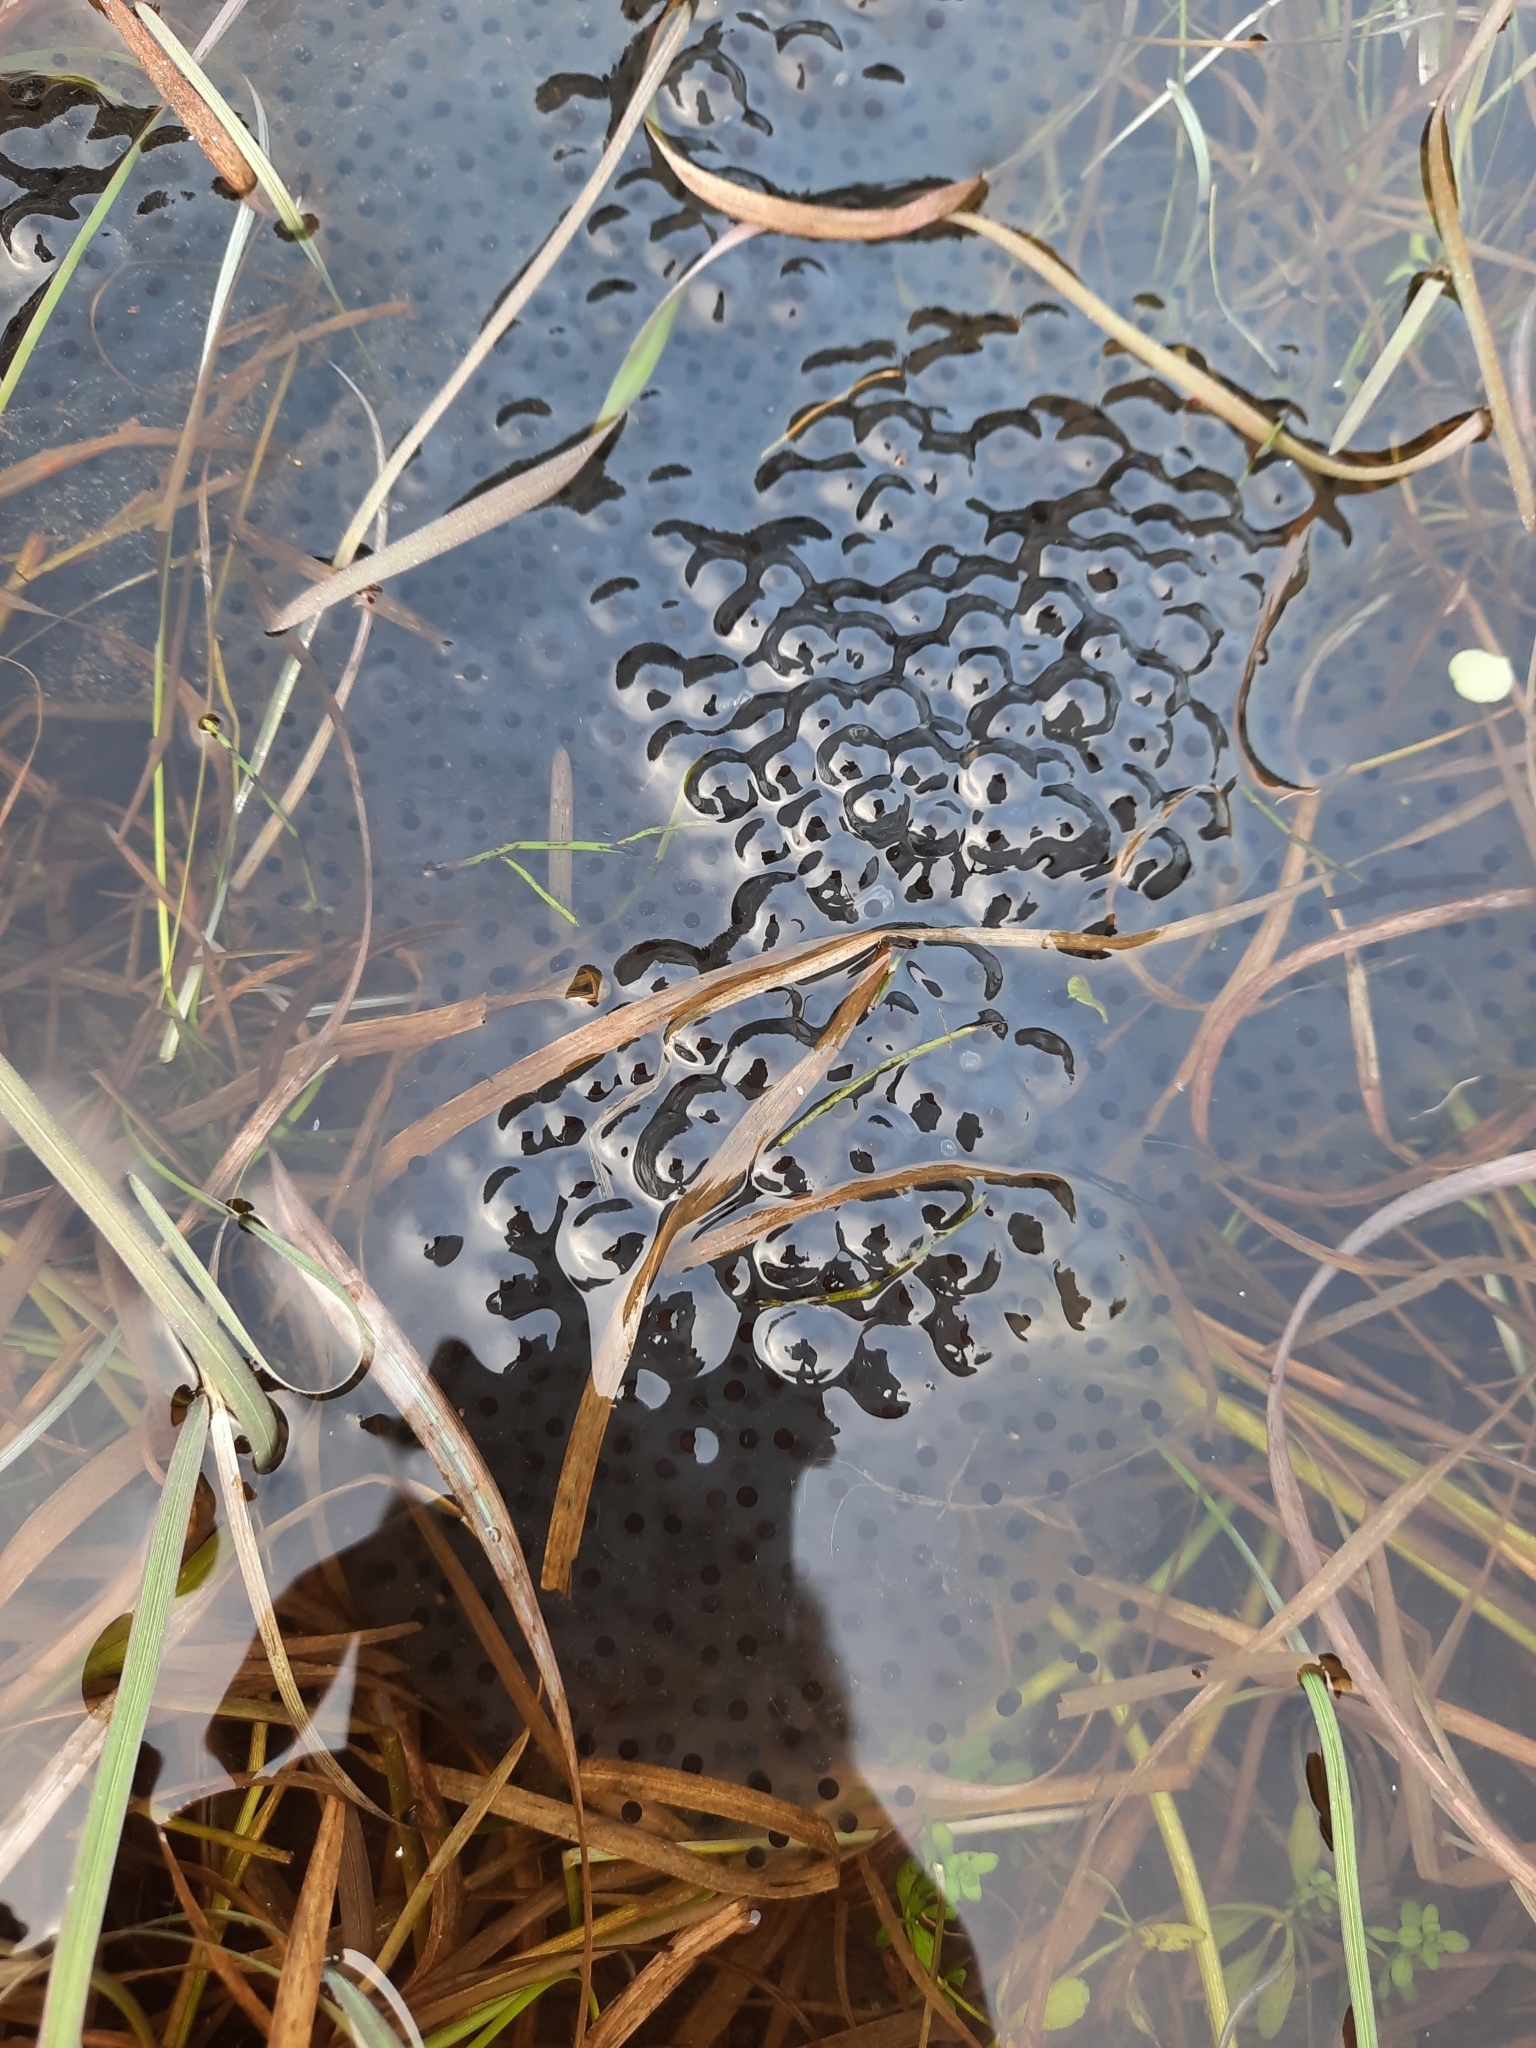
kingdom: Animalia
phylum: Chordata
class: Amphibia
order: Anura
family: Ranidae
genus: Rana
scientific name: Rana temporaria
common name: Common frog
